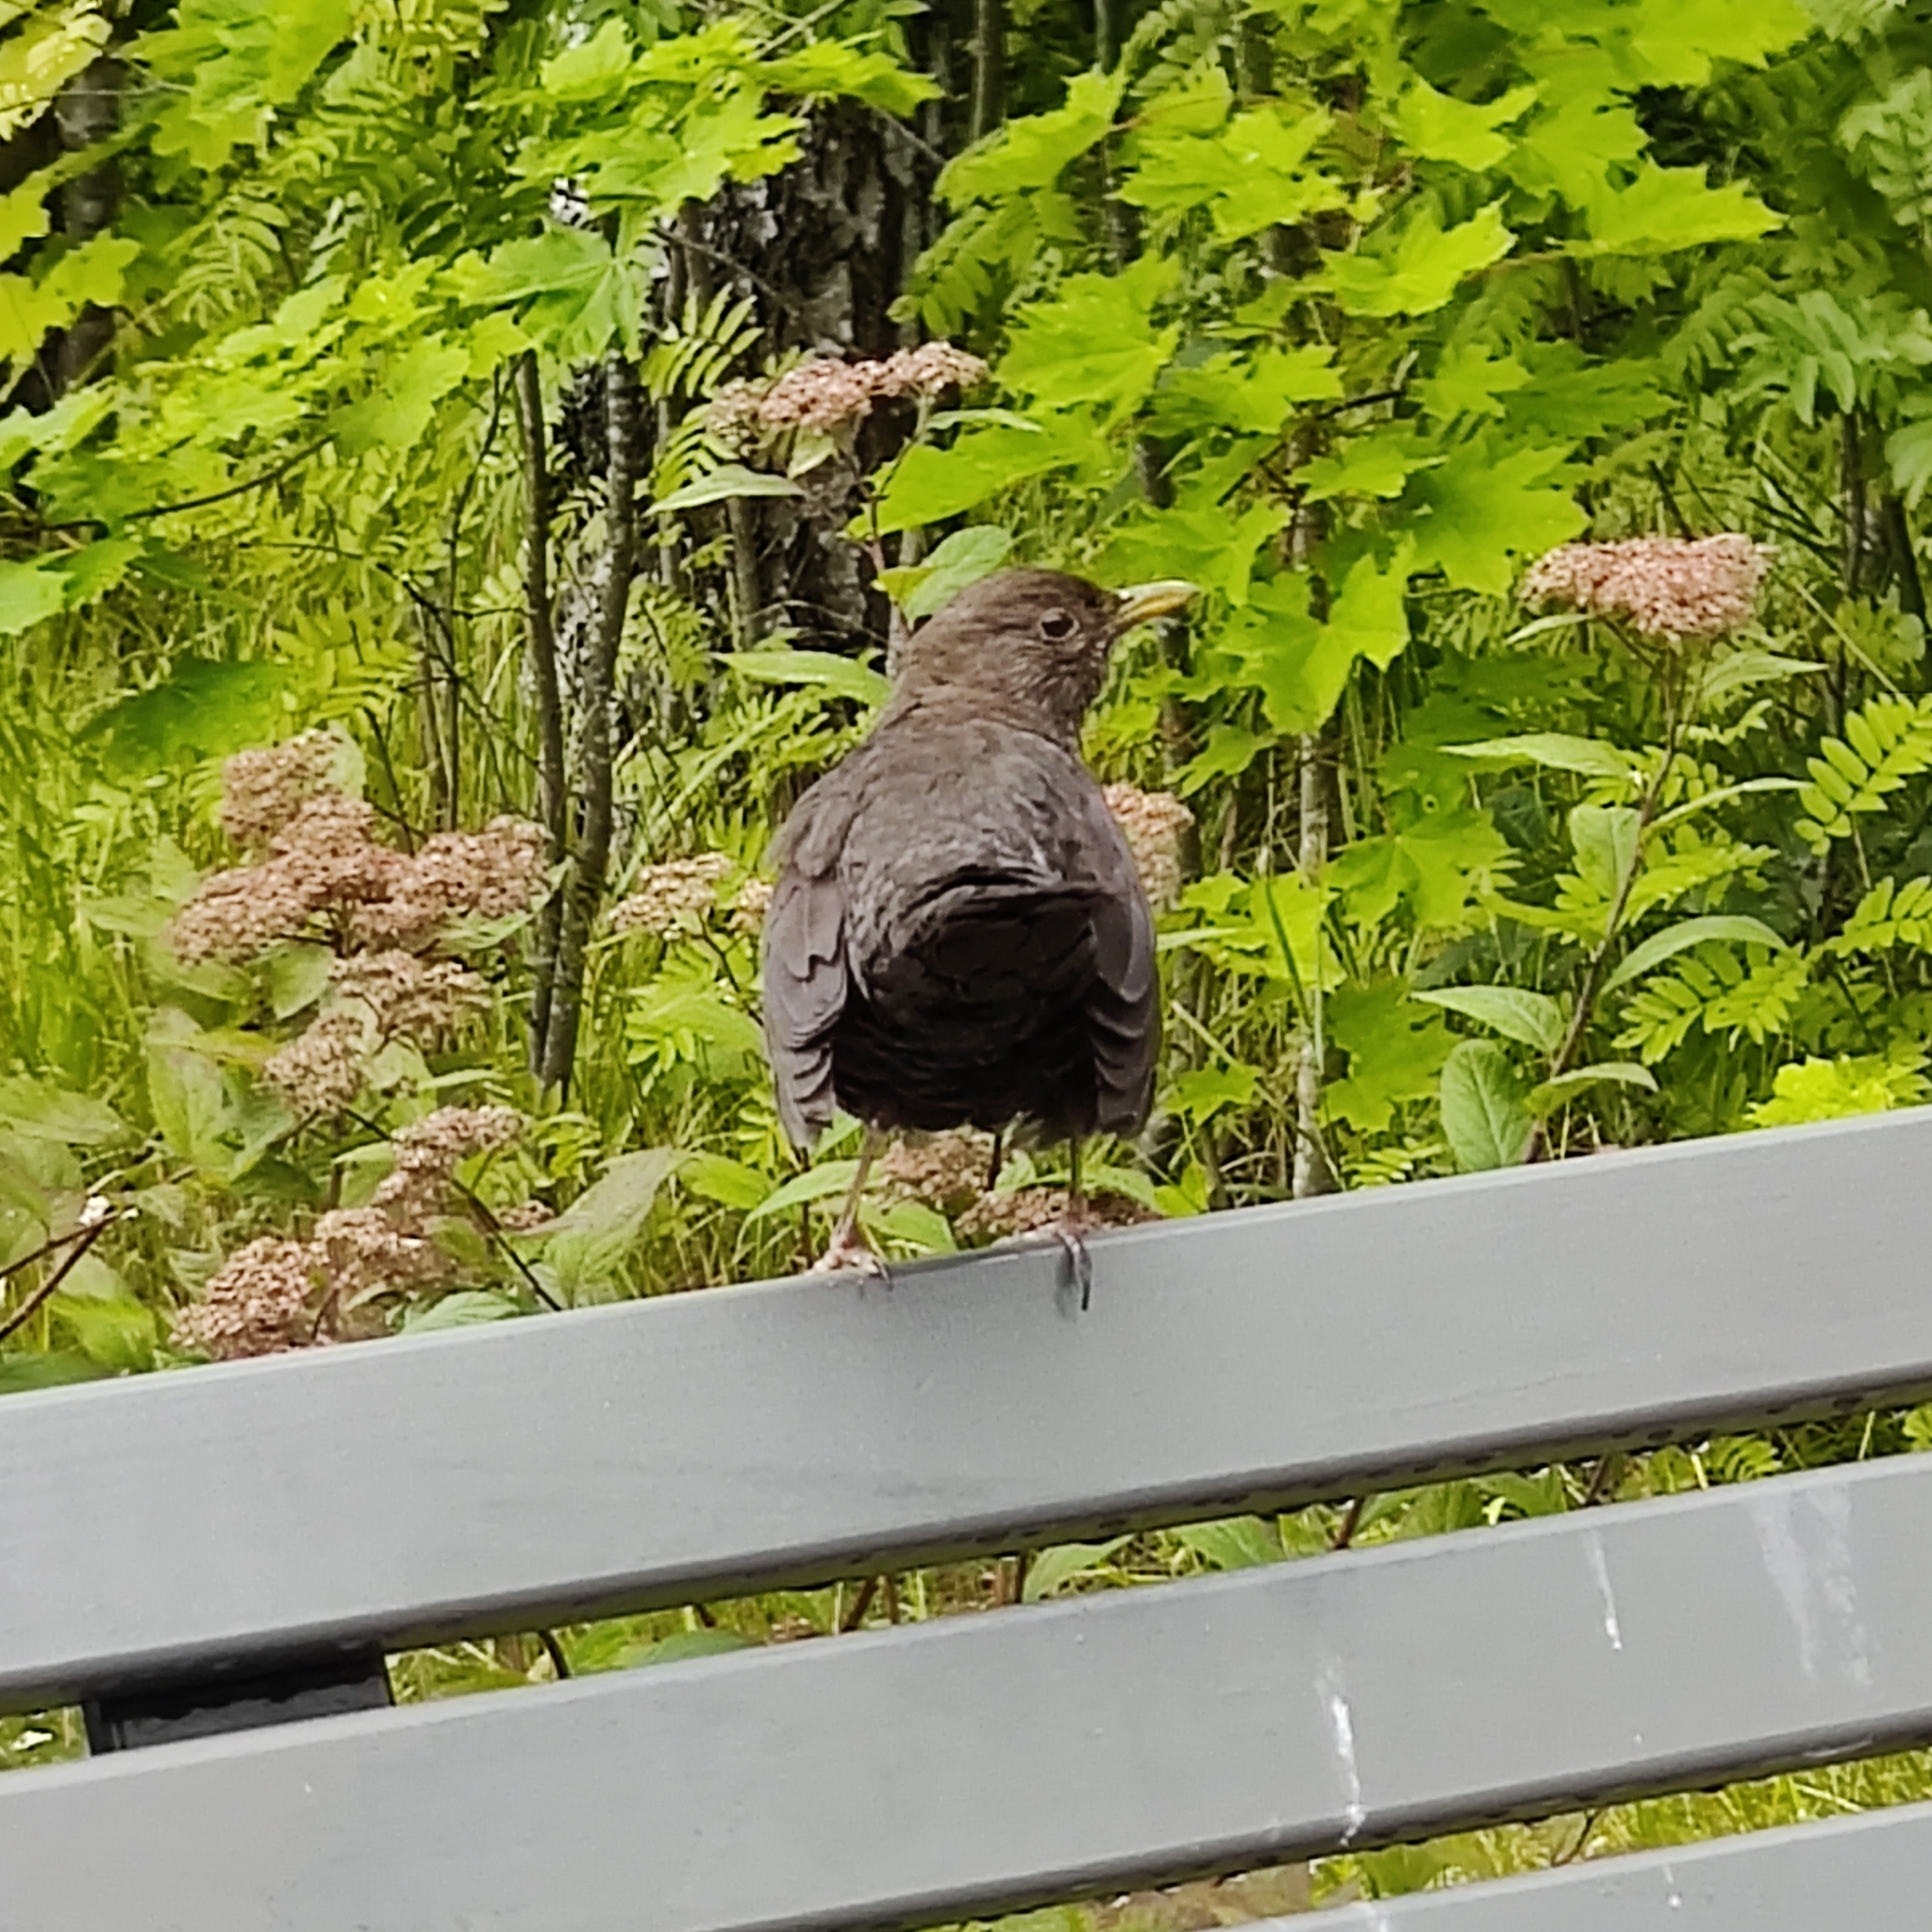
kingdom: Animalia
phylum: Chordata
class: Aves
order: Passeriformes
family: Turdidae
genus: Turdus
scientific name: Turdus merula
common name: Common blackbird
